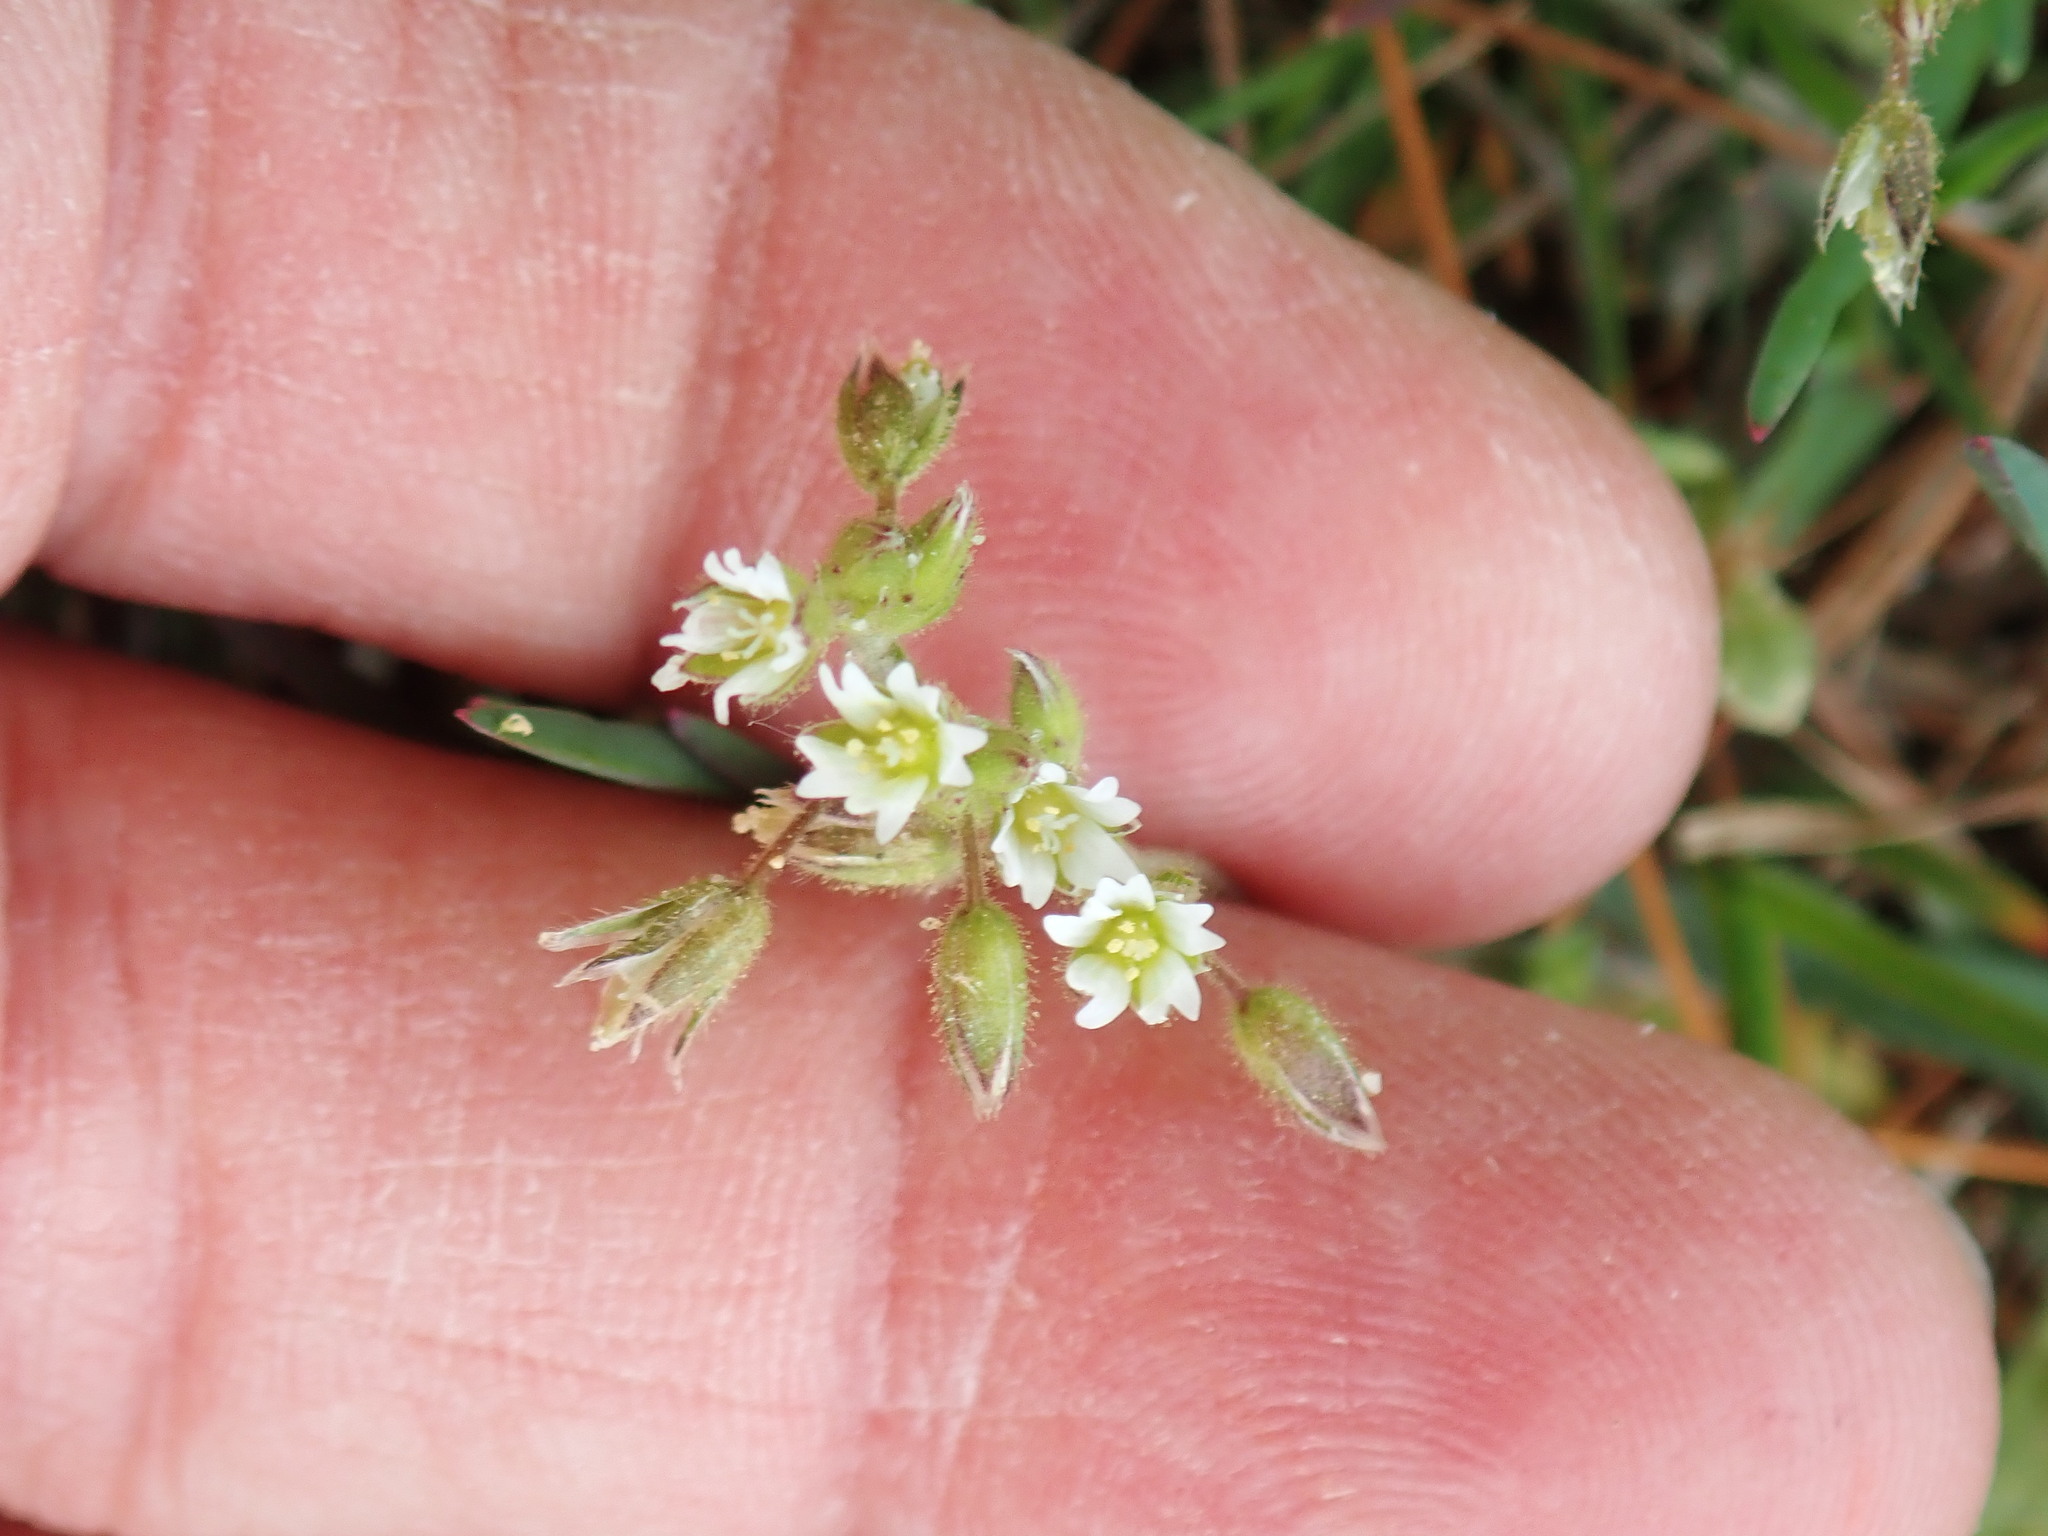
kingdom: Plantae
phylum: Tracheophyta
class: Magnoliopsida
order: Caryophyllales
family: Caryophyllaceae
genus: Cerastium
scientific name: Cerastium fontanum
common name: Common mouse-ear
